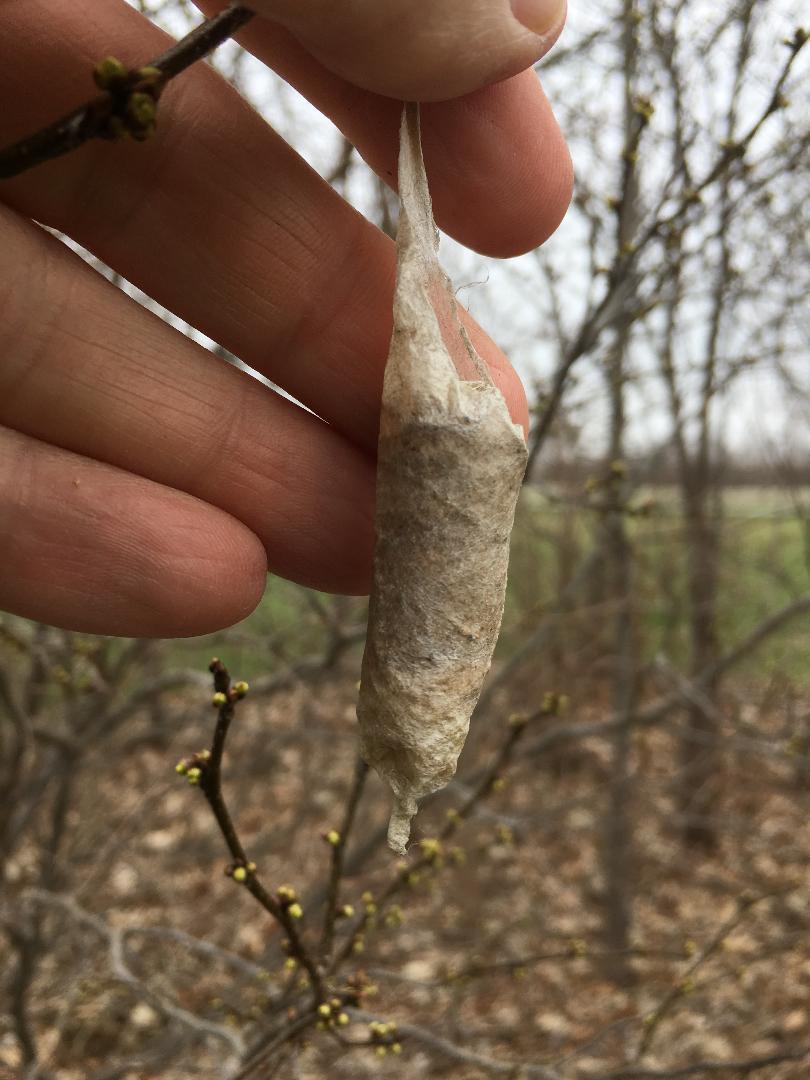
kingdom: Animalia
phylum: Arthropoda
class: Insecta
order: Lepidoptera
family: Saturniidae
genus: Callosamia
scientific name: Callosamia promethea
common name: Promethea silkmoth
